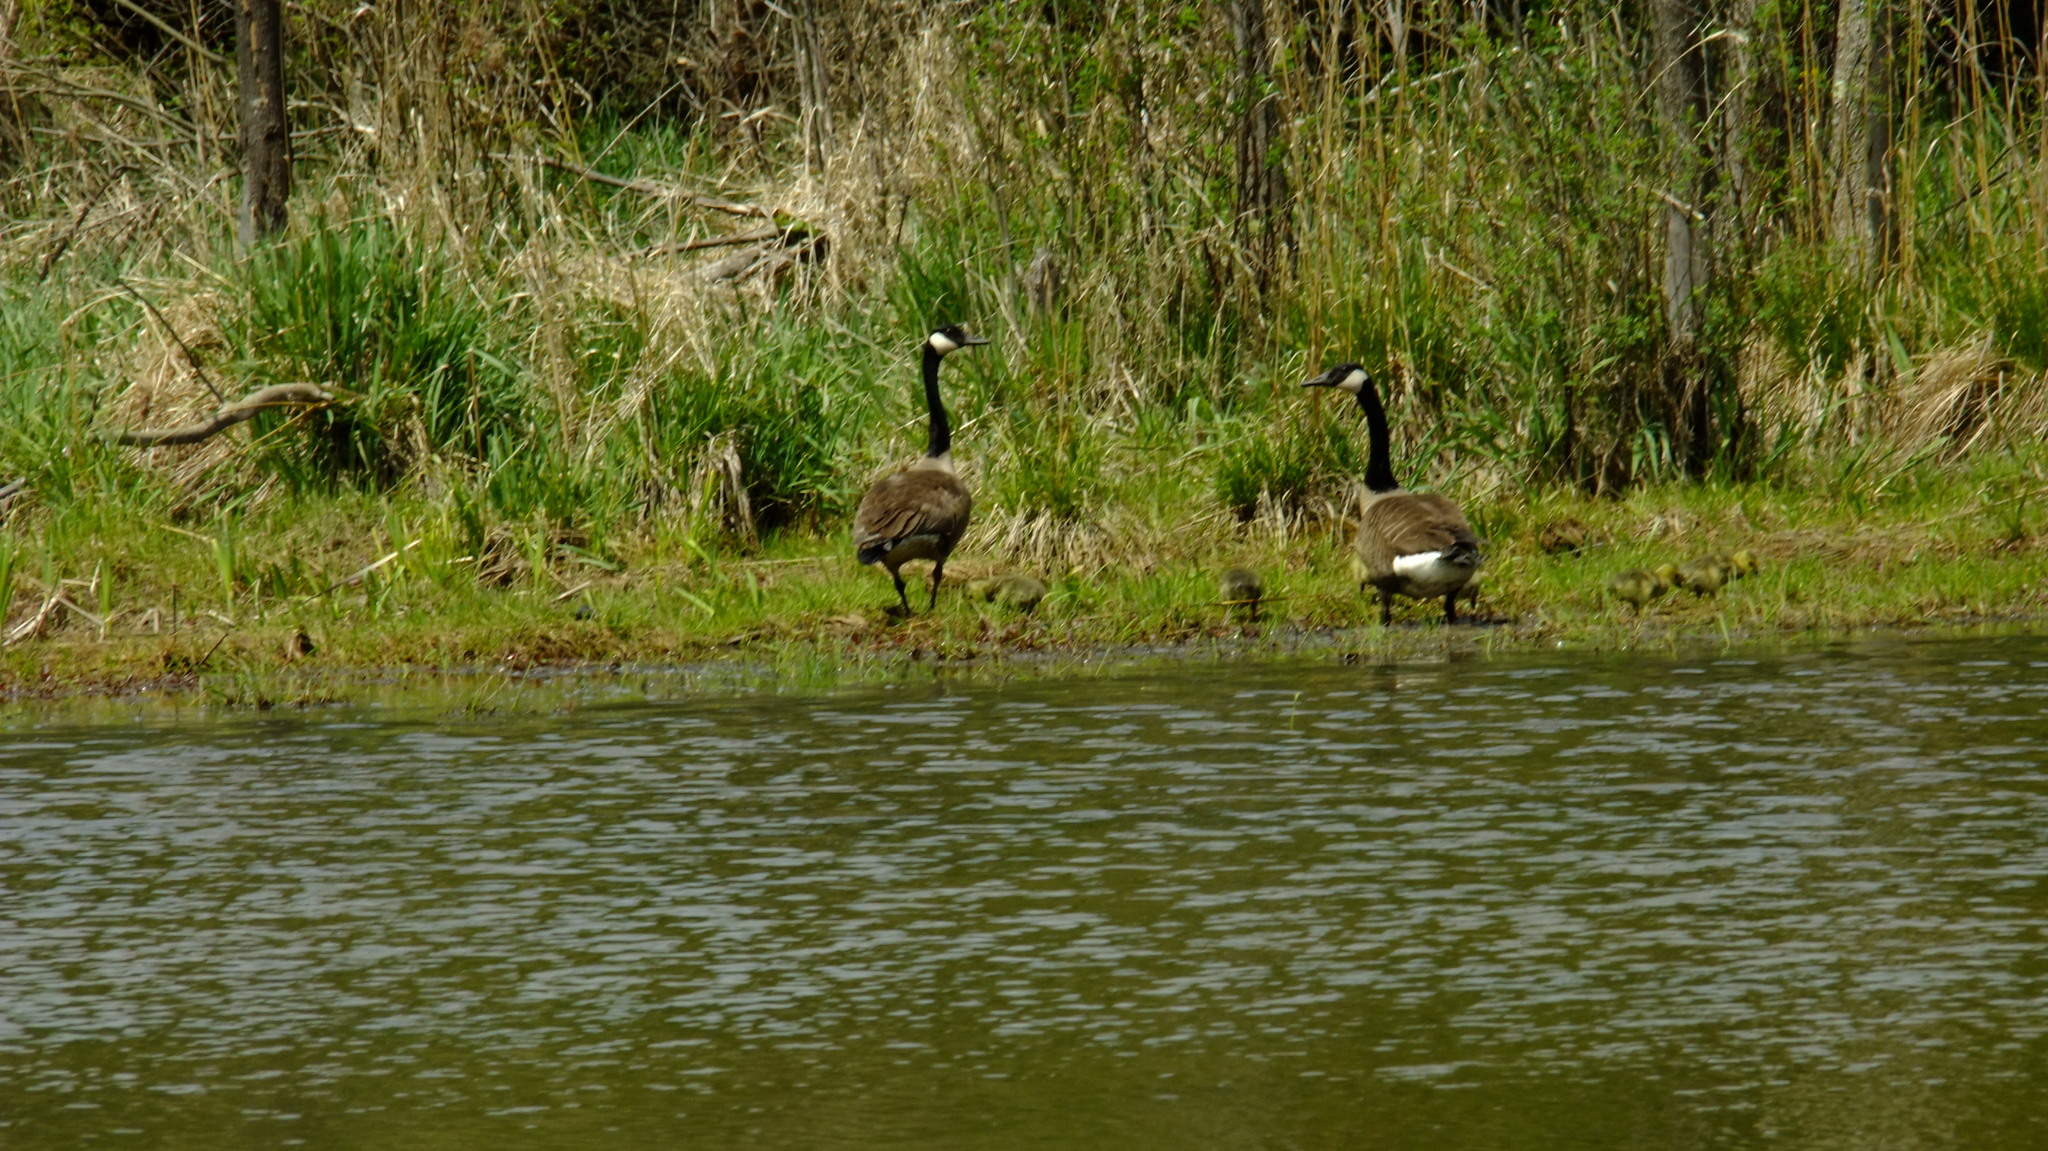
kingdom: Animalia
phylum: Chordata
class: Aves
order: Anseriformes
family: Anatidae
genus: Branta
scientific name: Branta canadensis
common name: Canada goose
